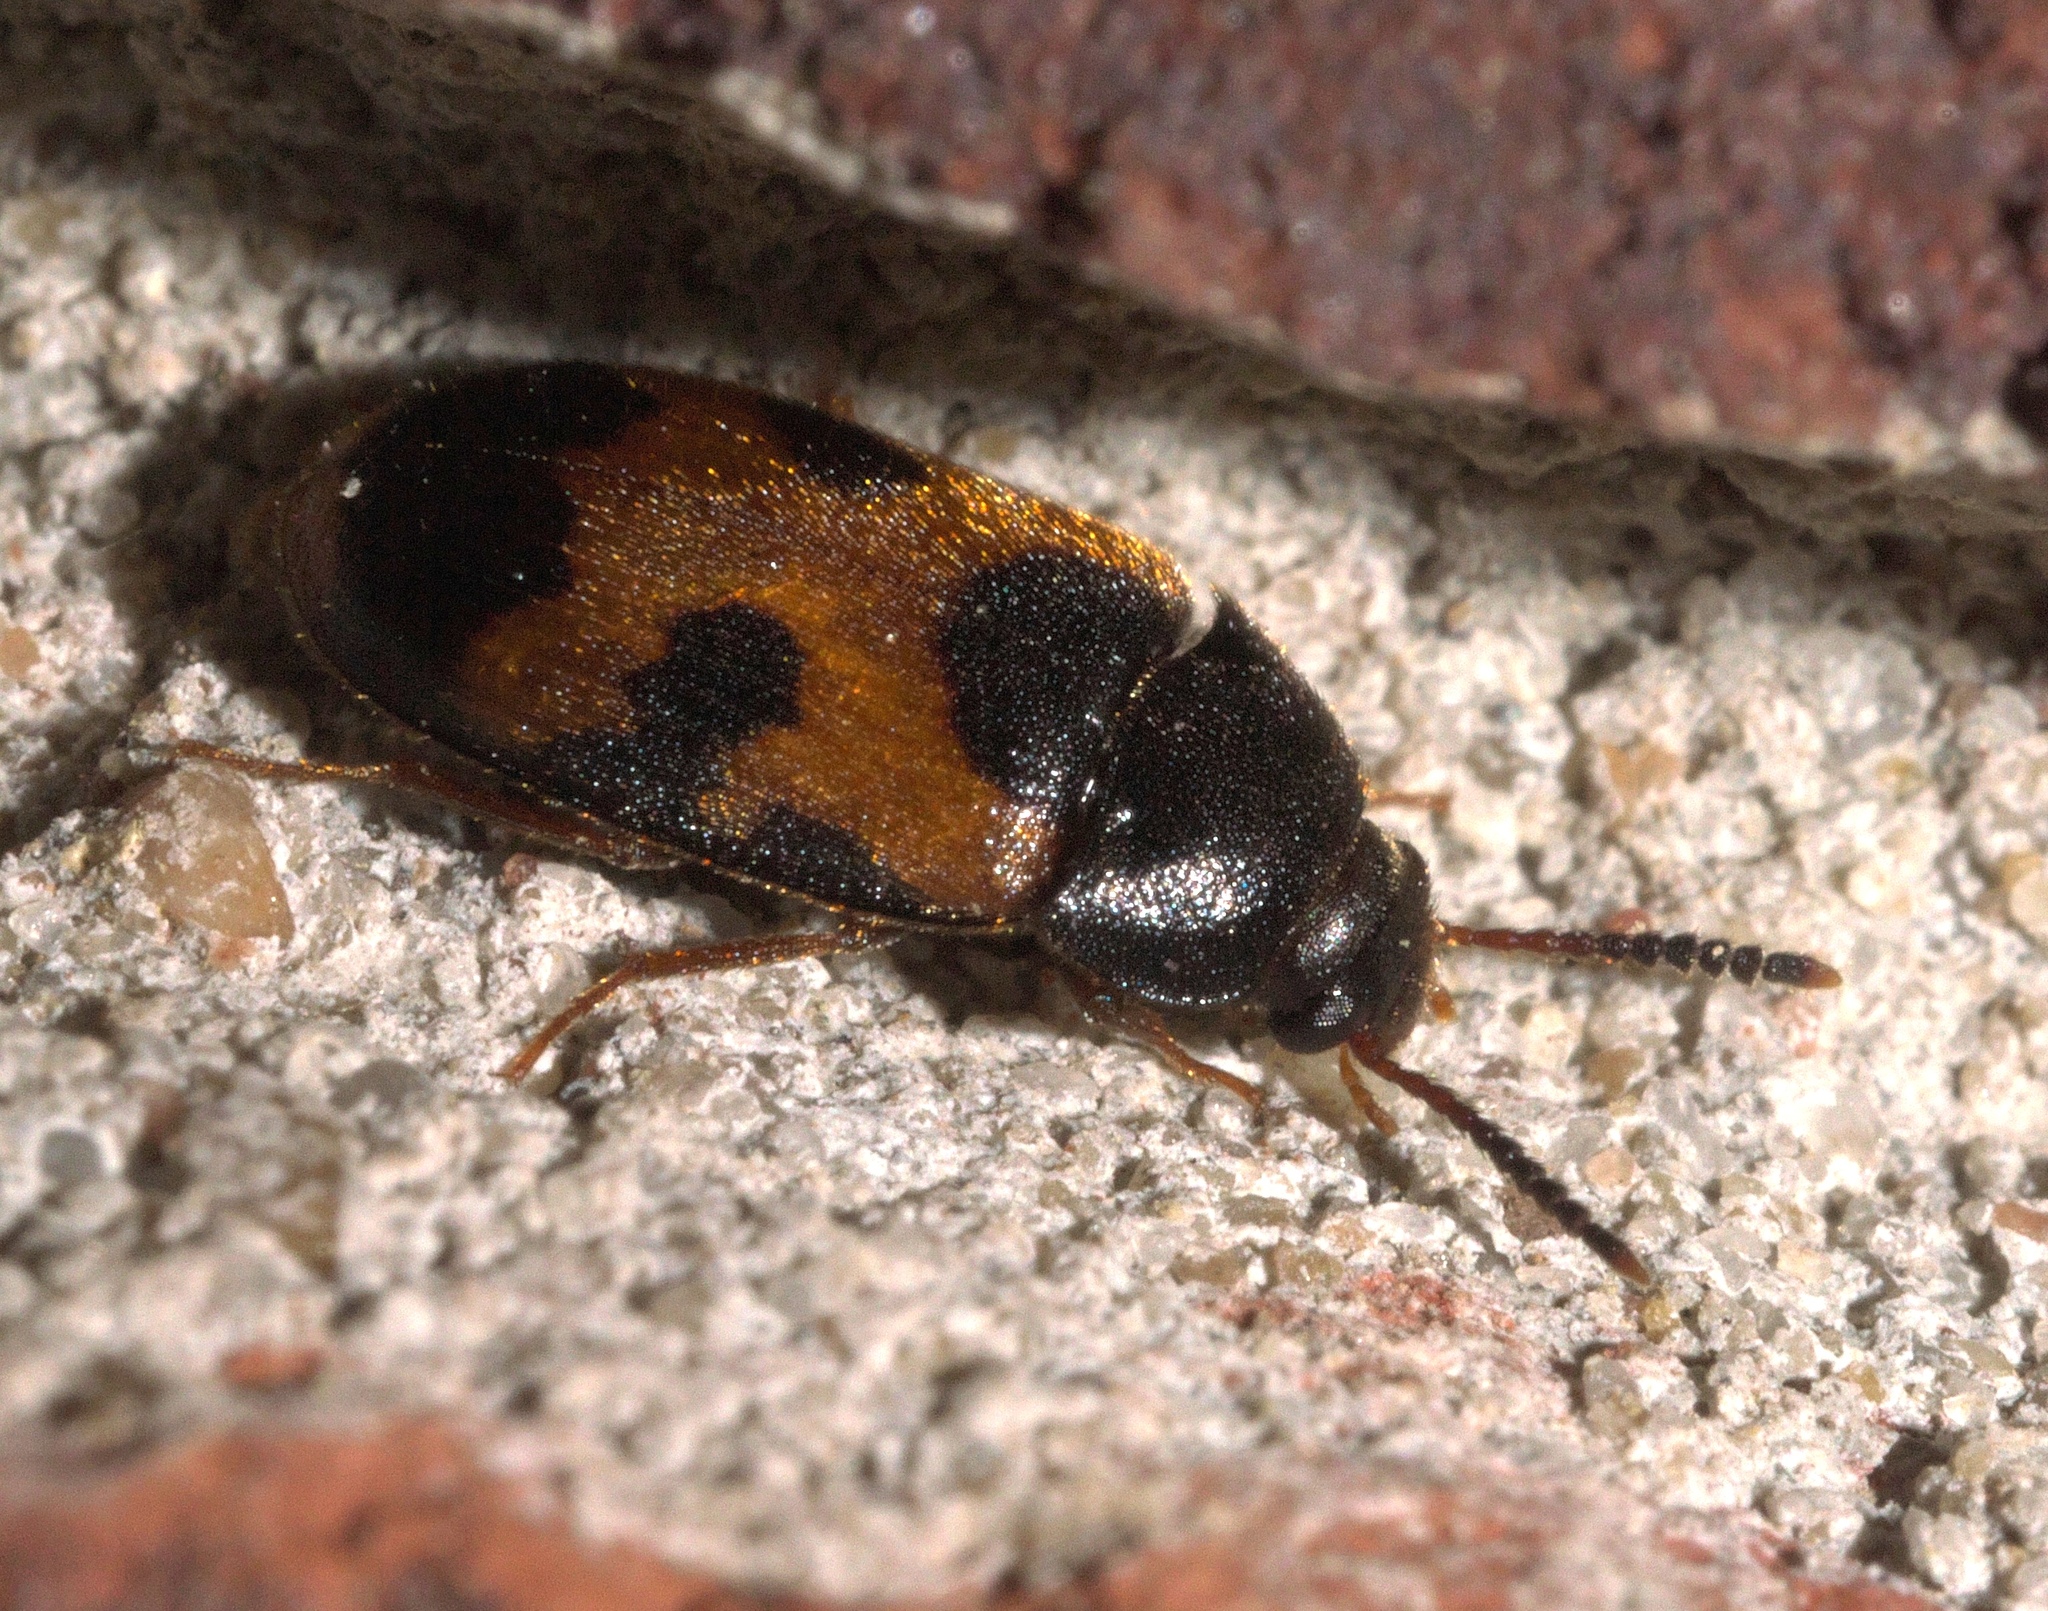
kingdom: Animalia
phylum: Arthropoda
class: Insecta
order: Coleoptera
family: Mycetophagidae
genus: Mycetophagus
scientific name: Mycetophagus punctatus
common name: Hairy fungus beetle
